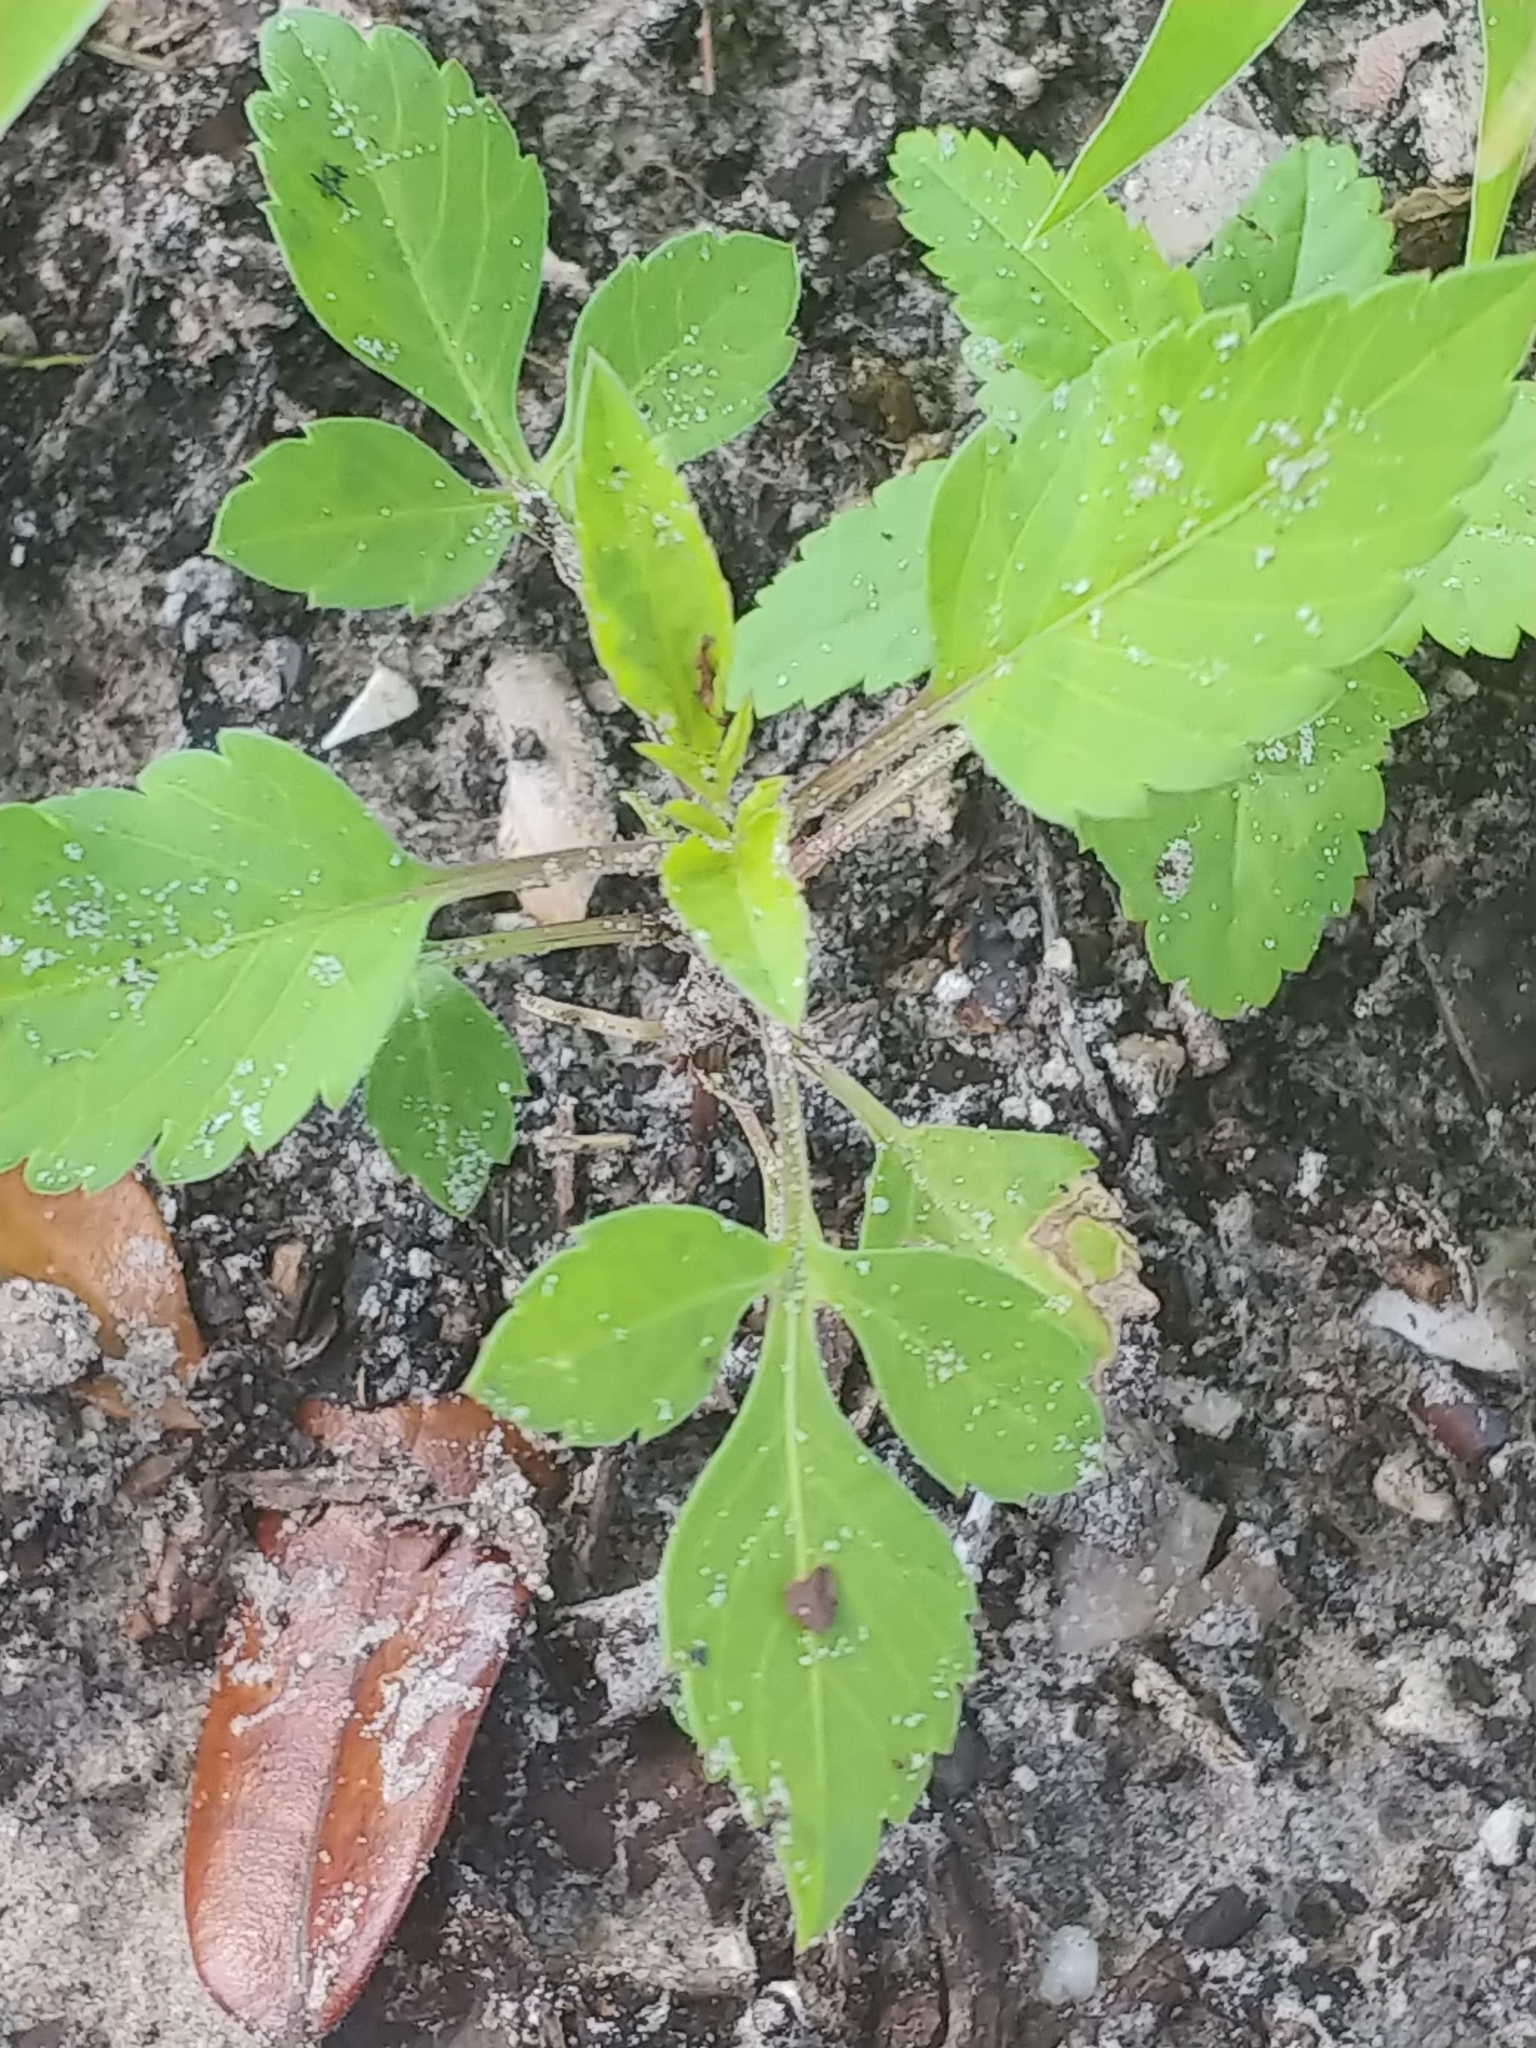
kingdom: Plantae
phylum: Tracheophyta
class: Magnoliopsida
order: Asterales
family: Asteraceae
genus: Bidens
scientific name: Bidens alba
